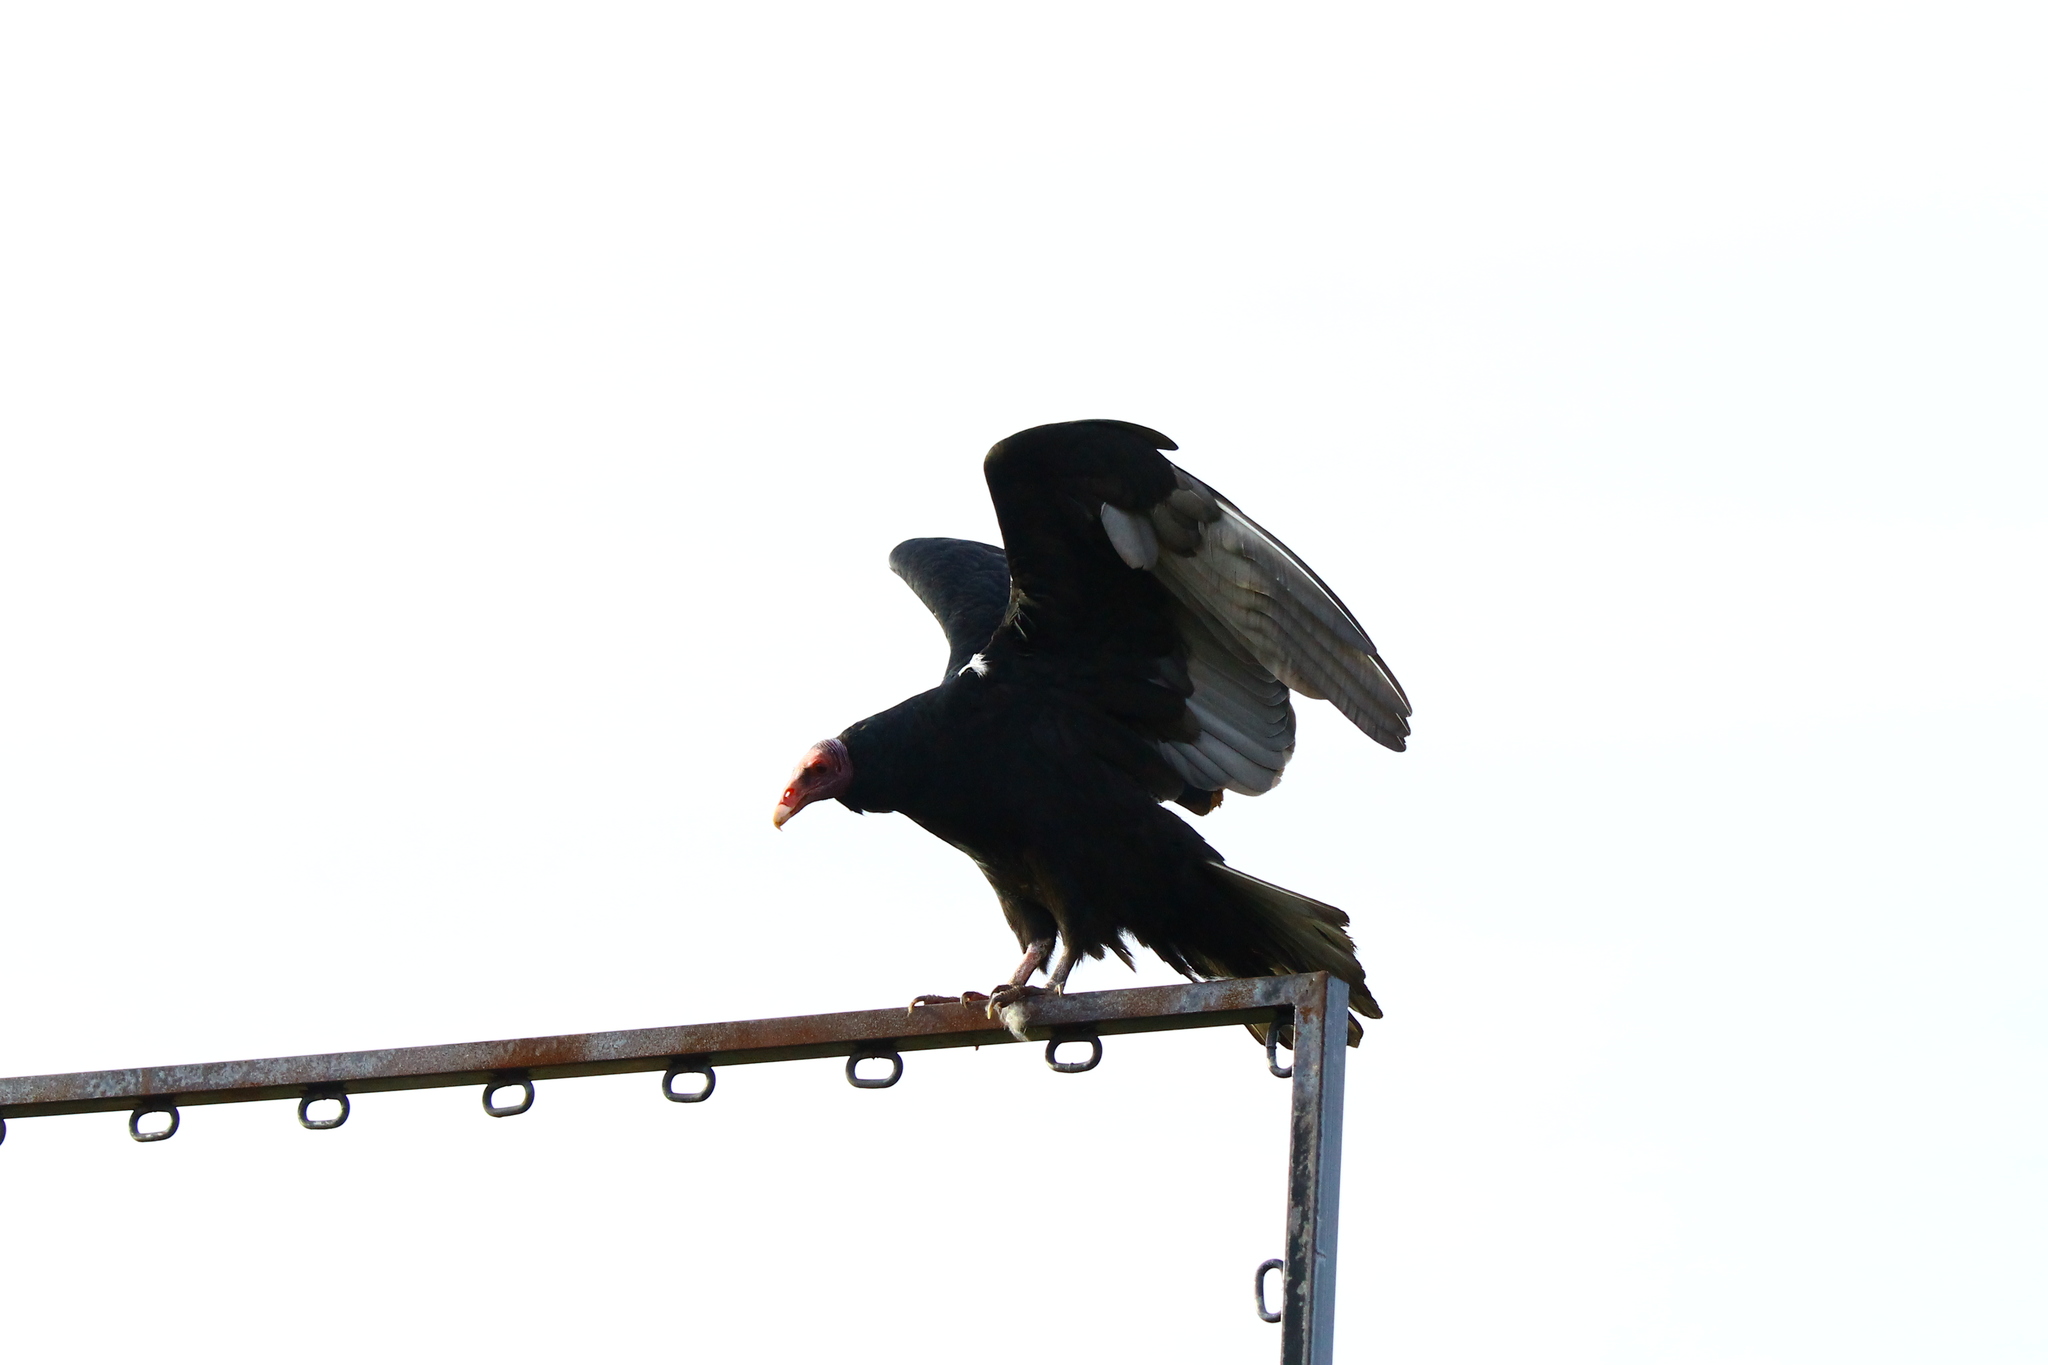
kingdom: Animalia
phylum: Chordata
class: Aves
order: Accipitriformes
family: Cathartidae
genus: Cathartes
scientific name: Cathartes aura
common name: Turkey vulture
